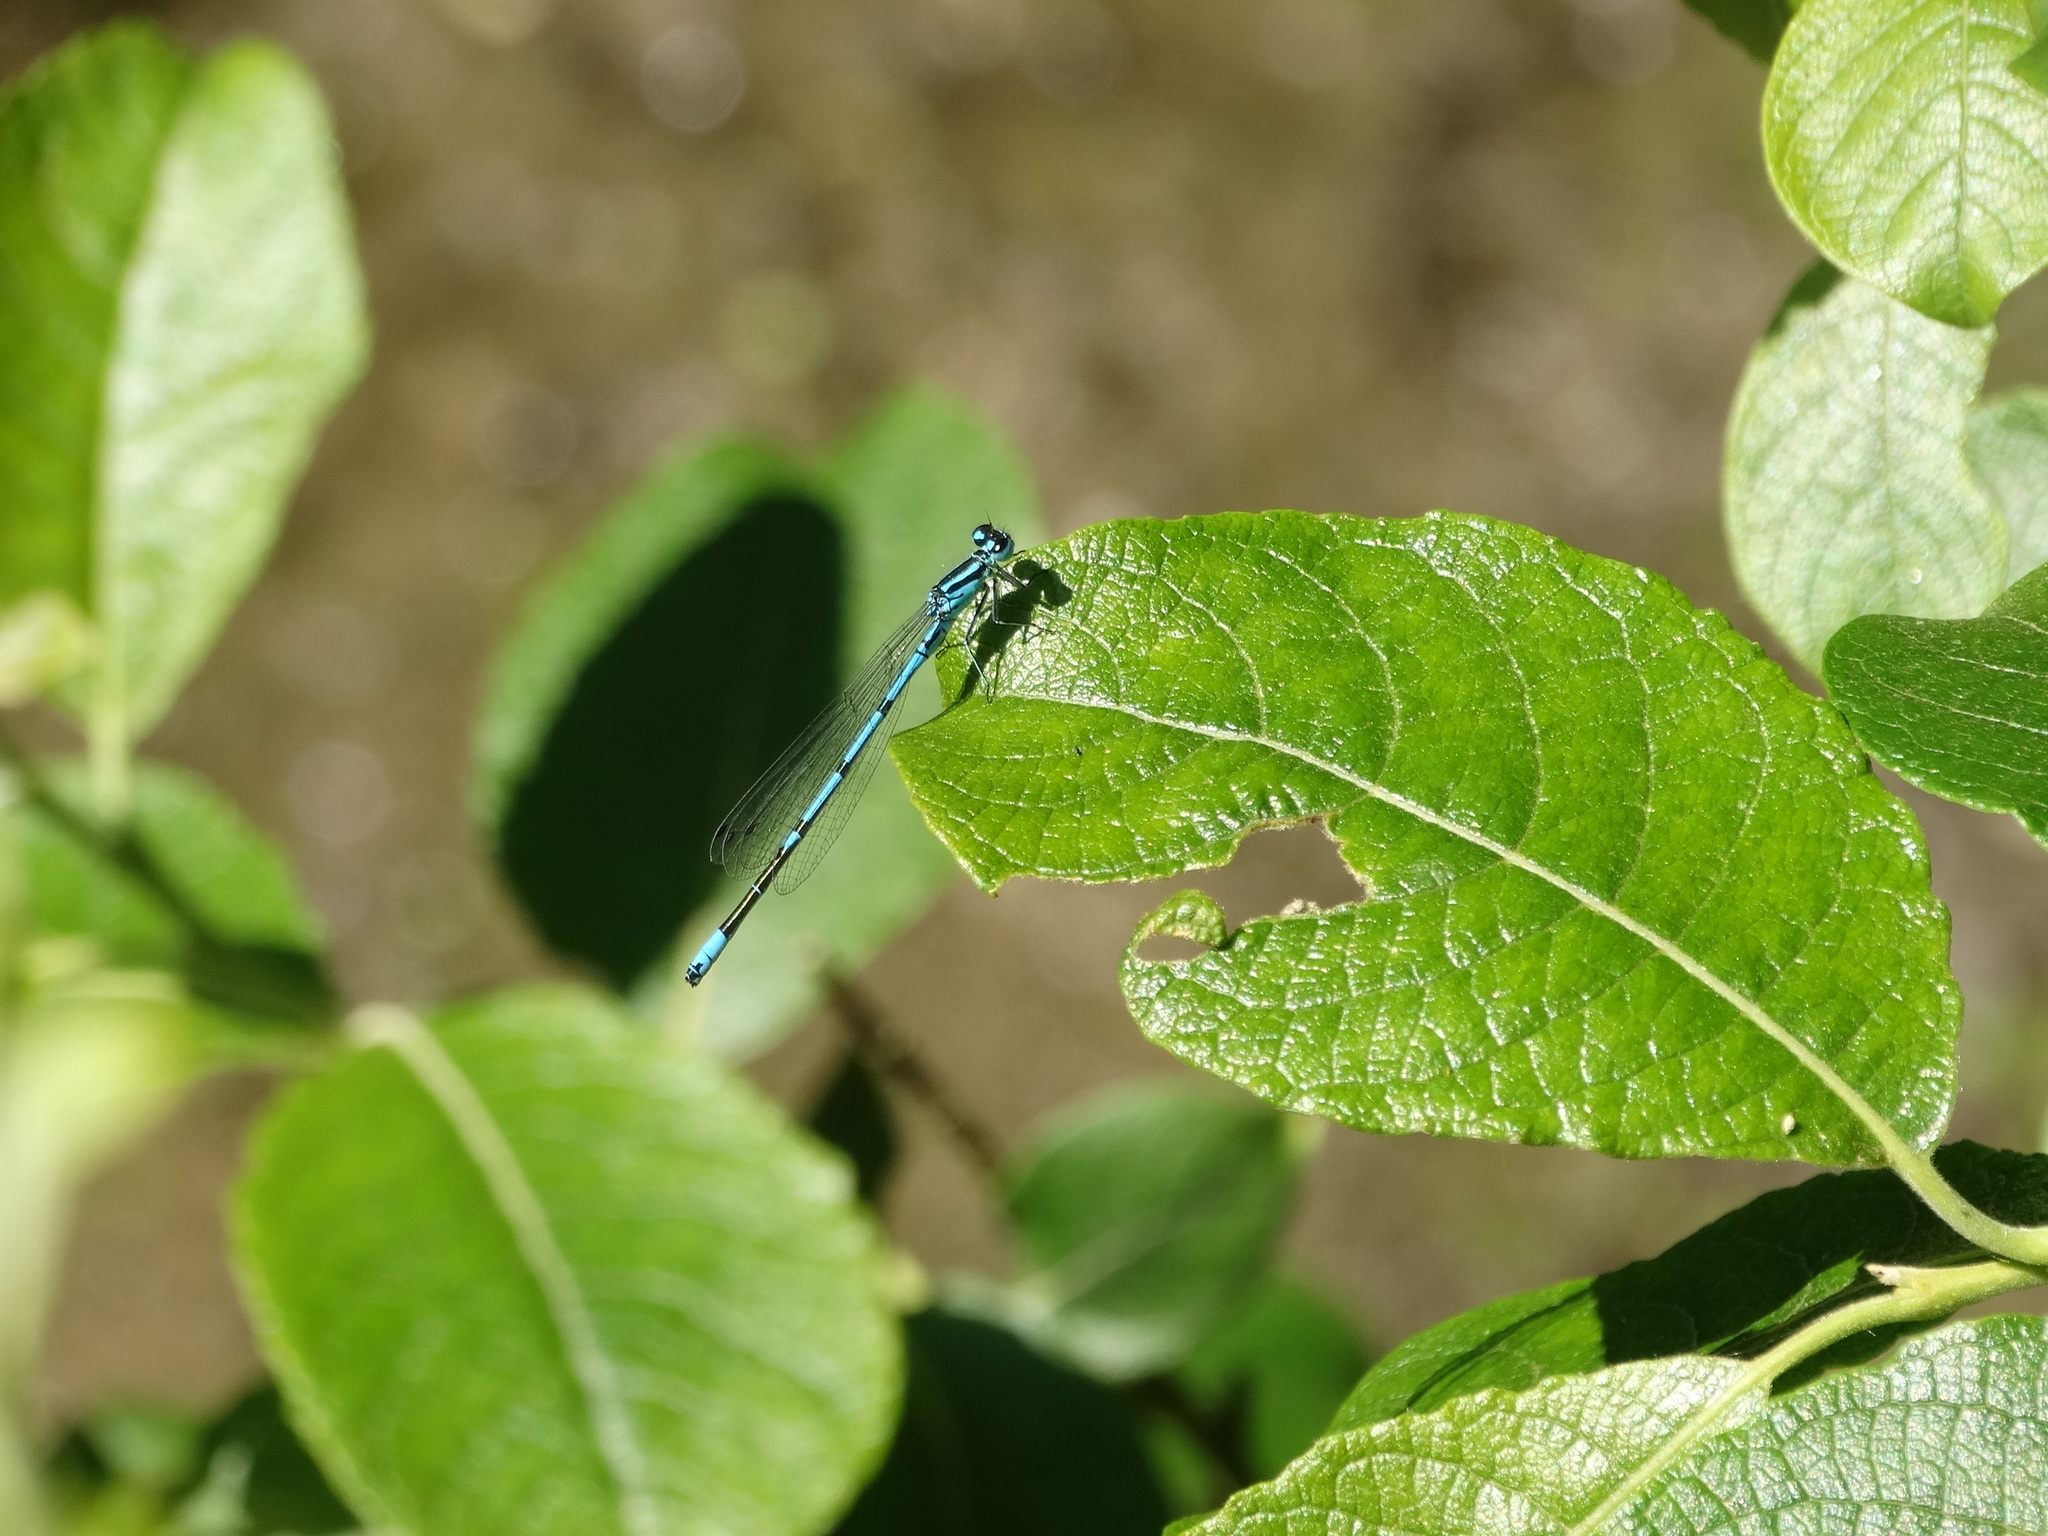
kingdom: Animalia
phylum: Arthropoda
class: Insecta
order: Odonata
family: Coenagrionidae
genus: Coenagrion
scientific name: Coenagrion puella
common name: Azure damselfly
